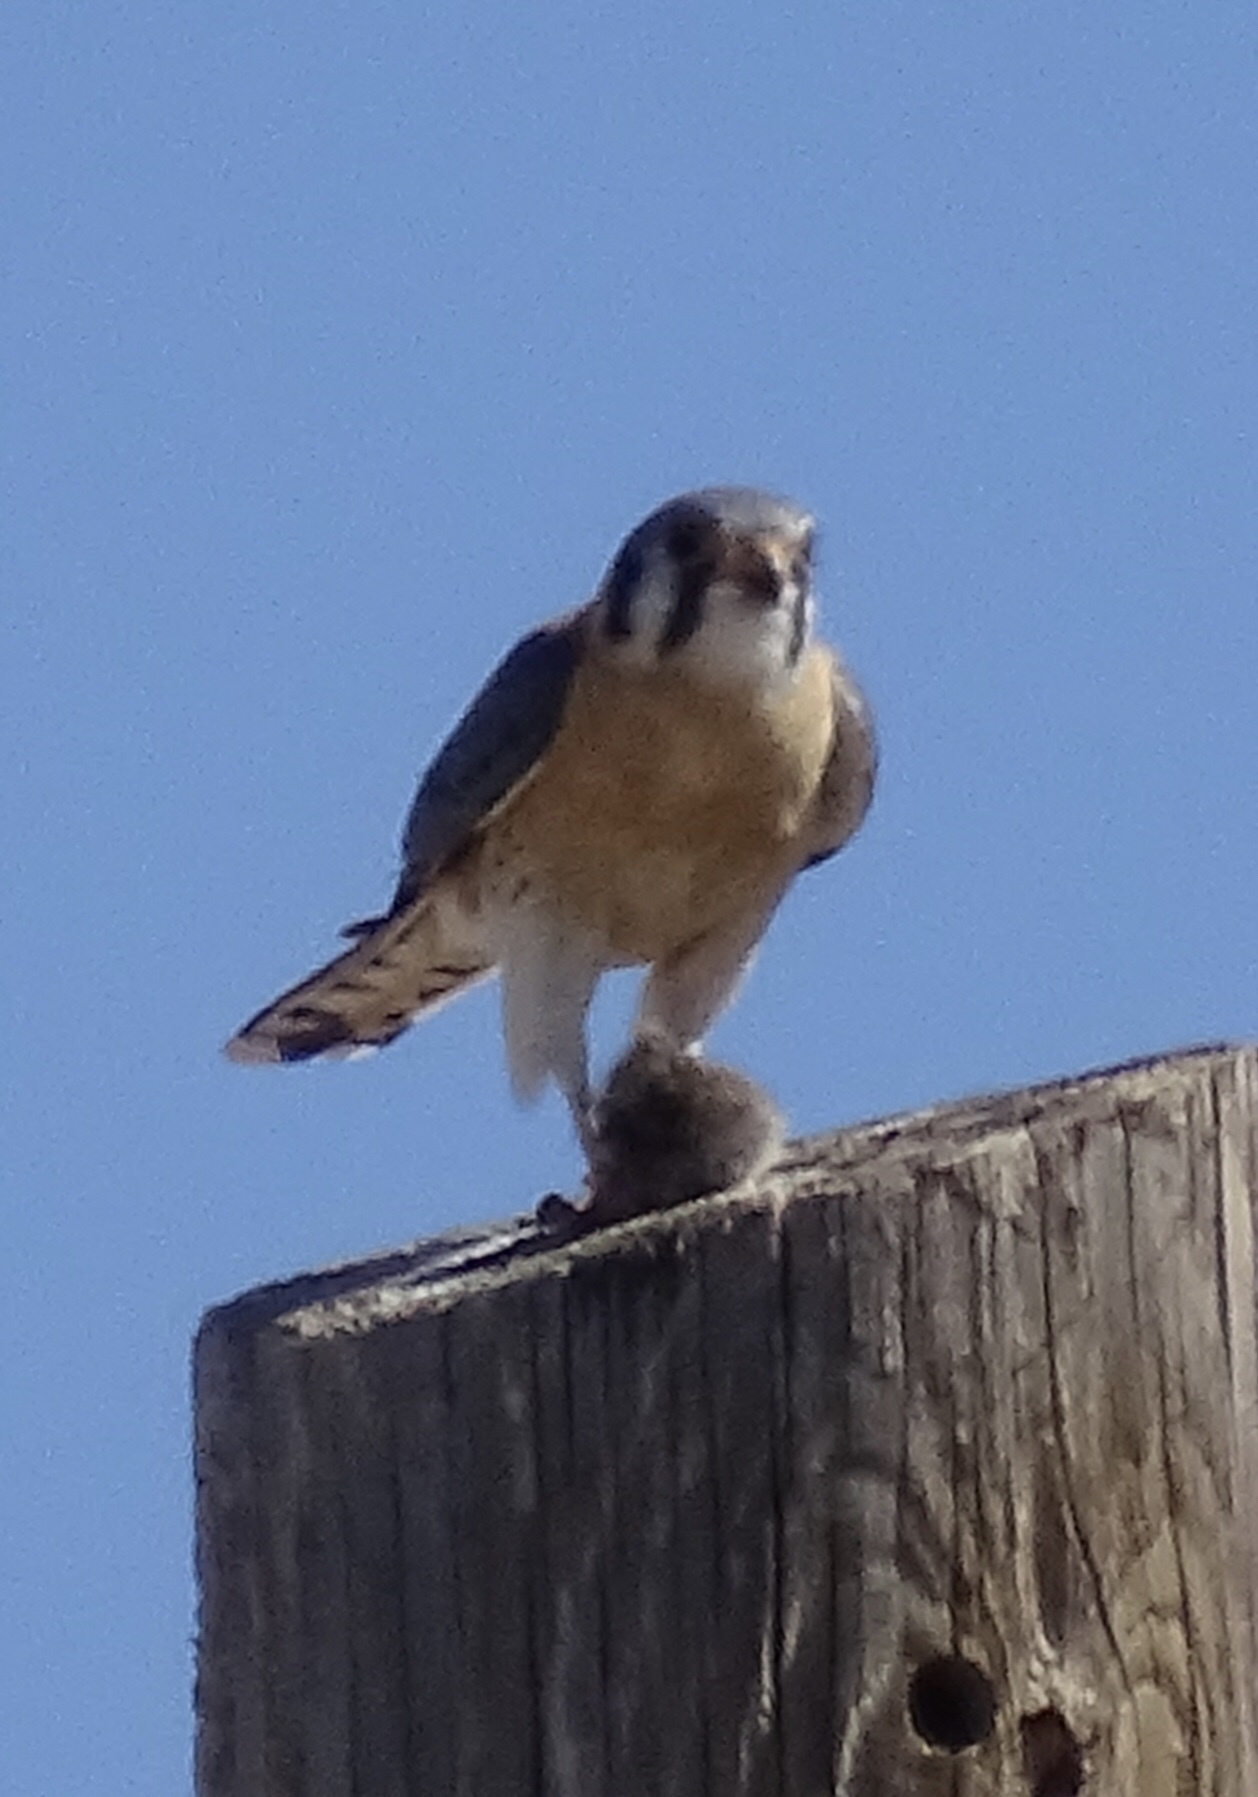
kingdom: Animalia
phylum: Chordata
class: Aves
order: Falconiformes
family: Falconidae
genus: Falco
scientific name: Falco sparverius
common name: American kestrel
